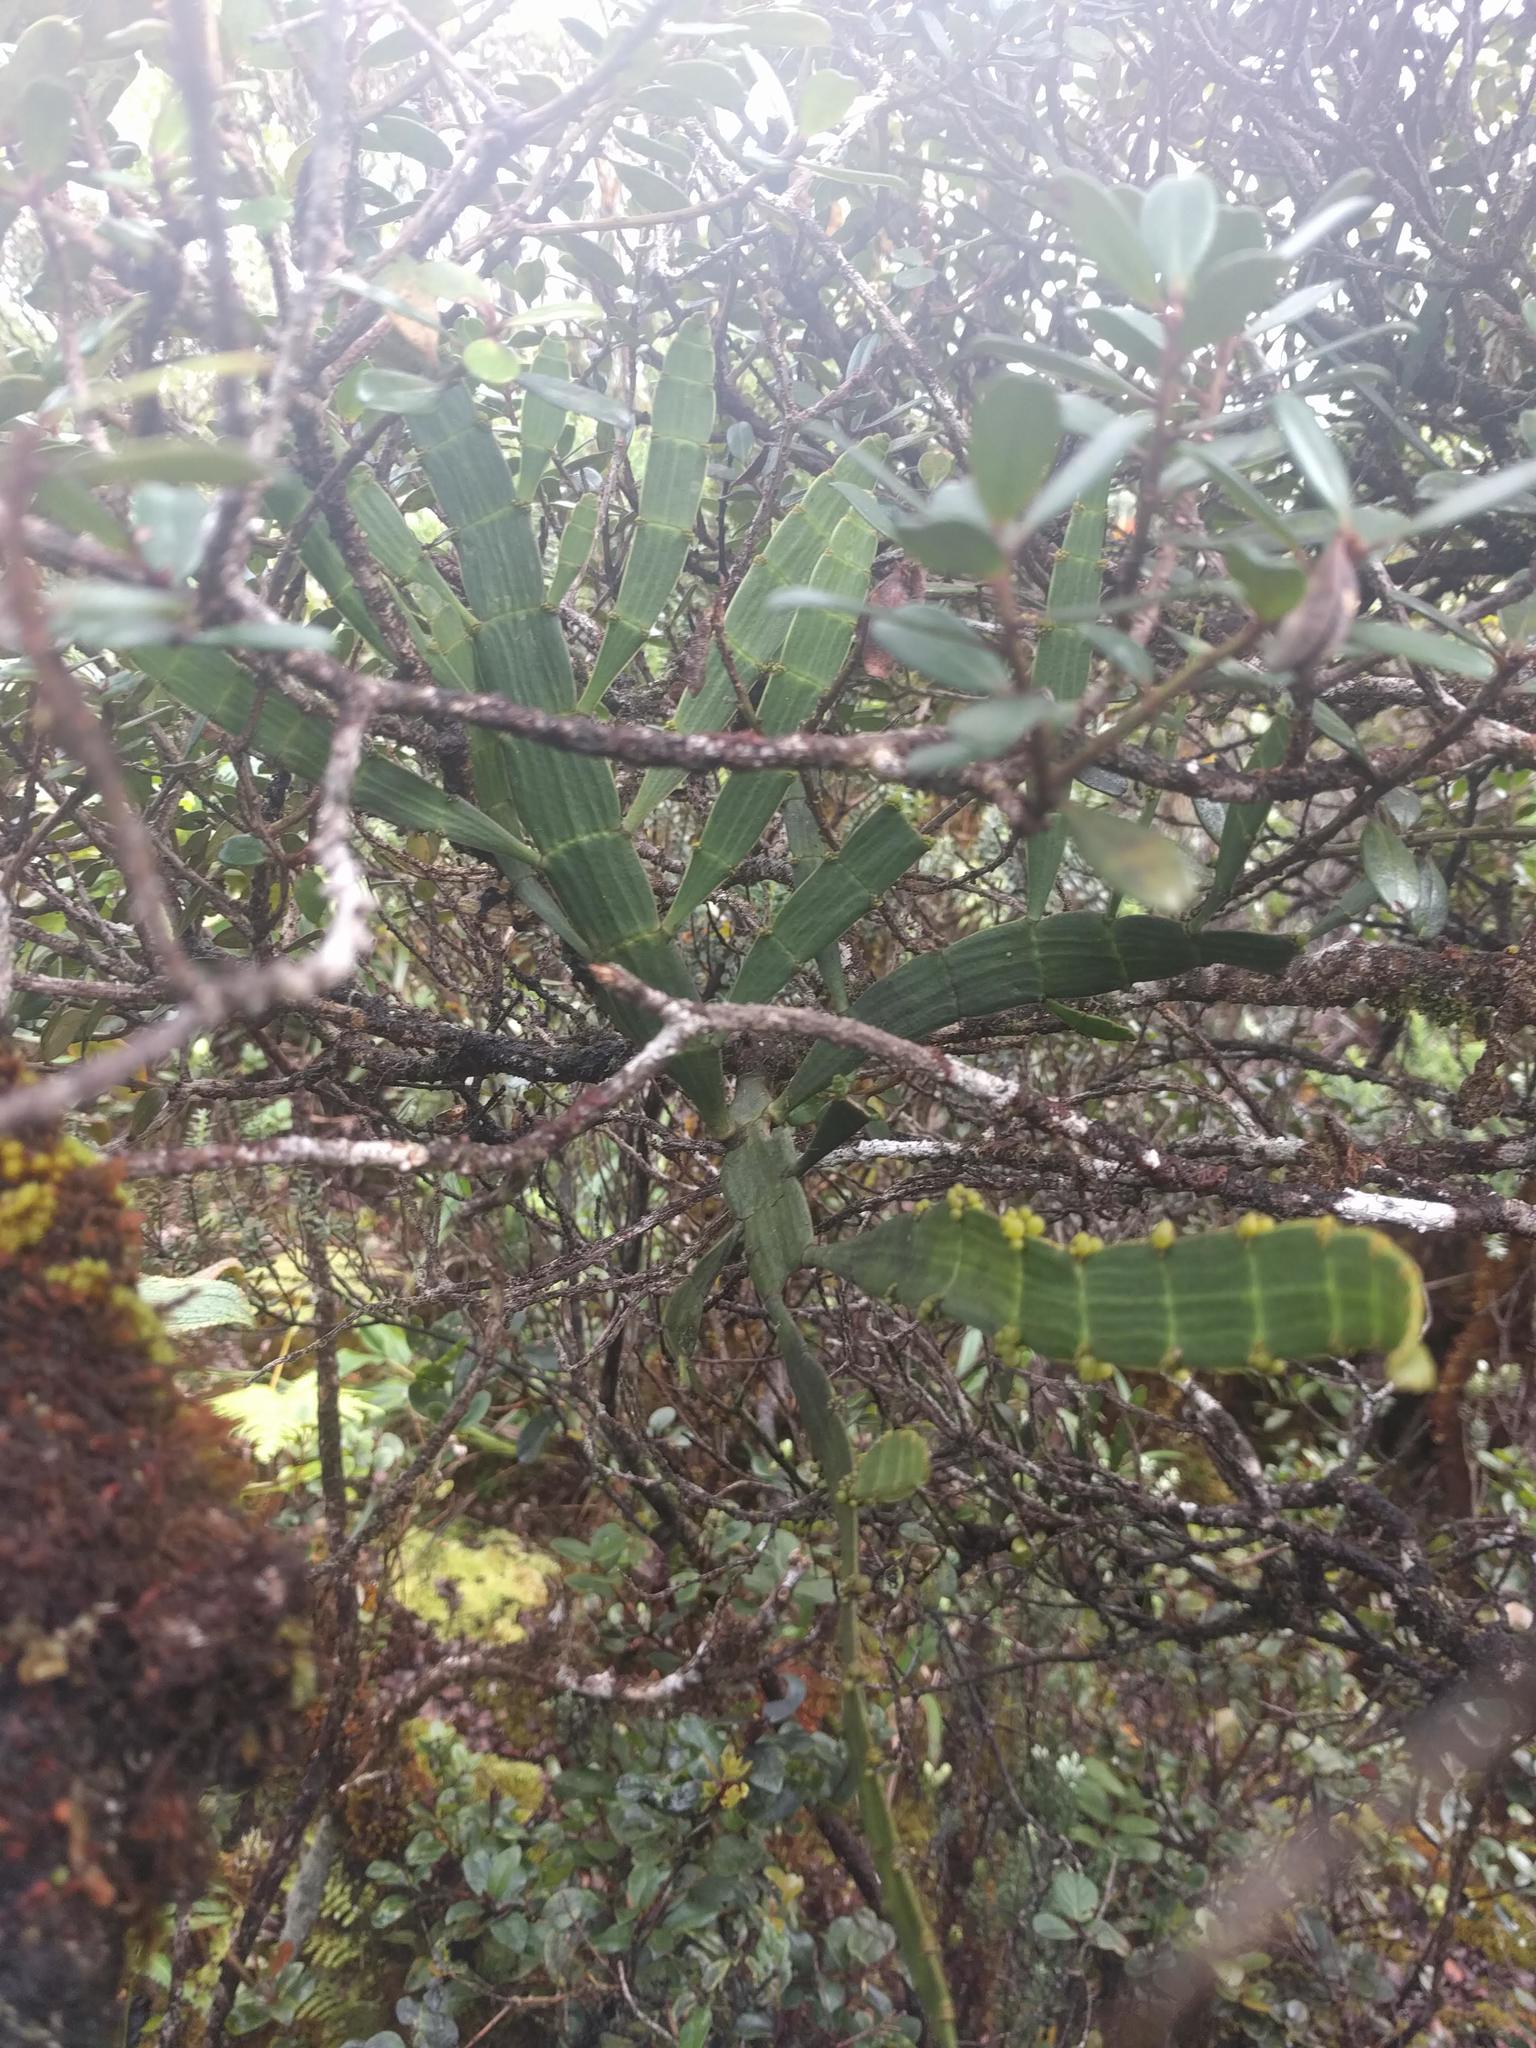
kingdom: Plantae
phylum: Tracheophyta
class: Magnoliopsida
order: Santalales
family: Viscaceae
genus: Korthalsella
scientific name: Korthalsella latissima
